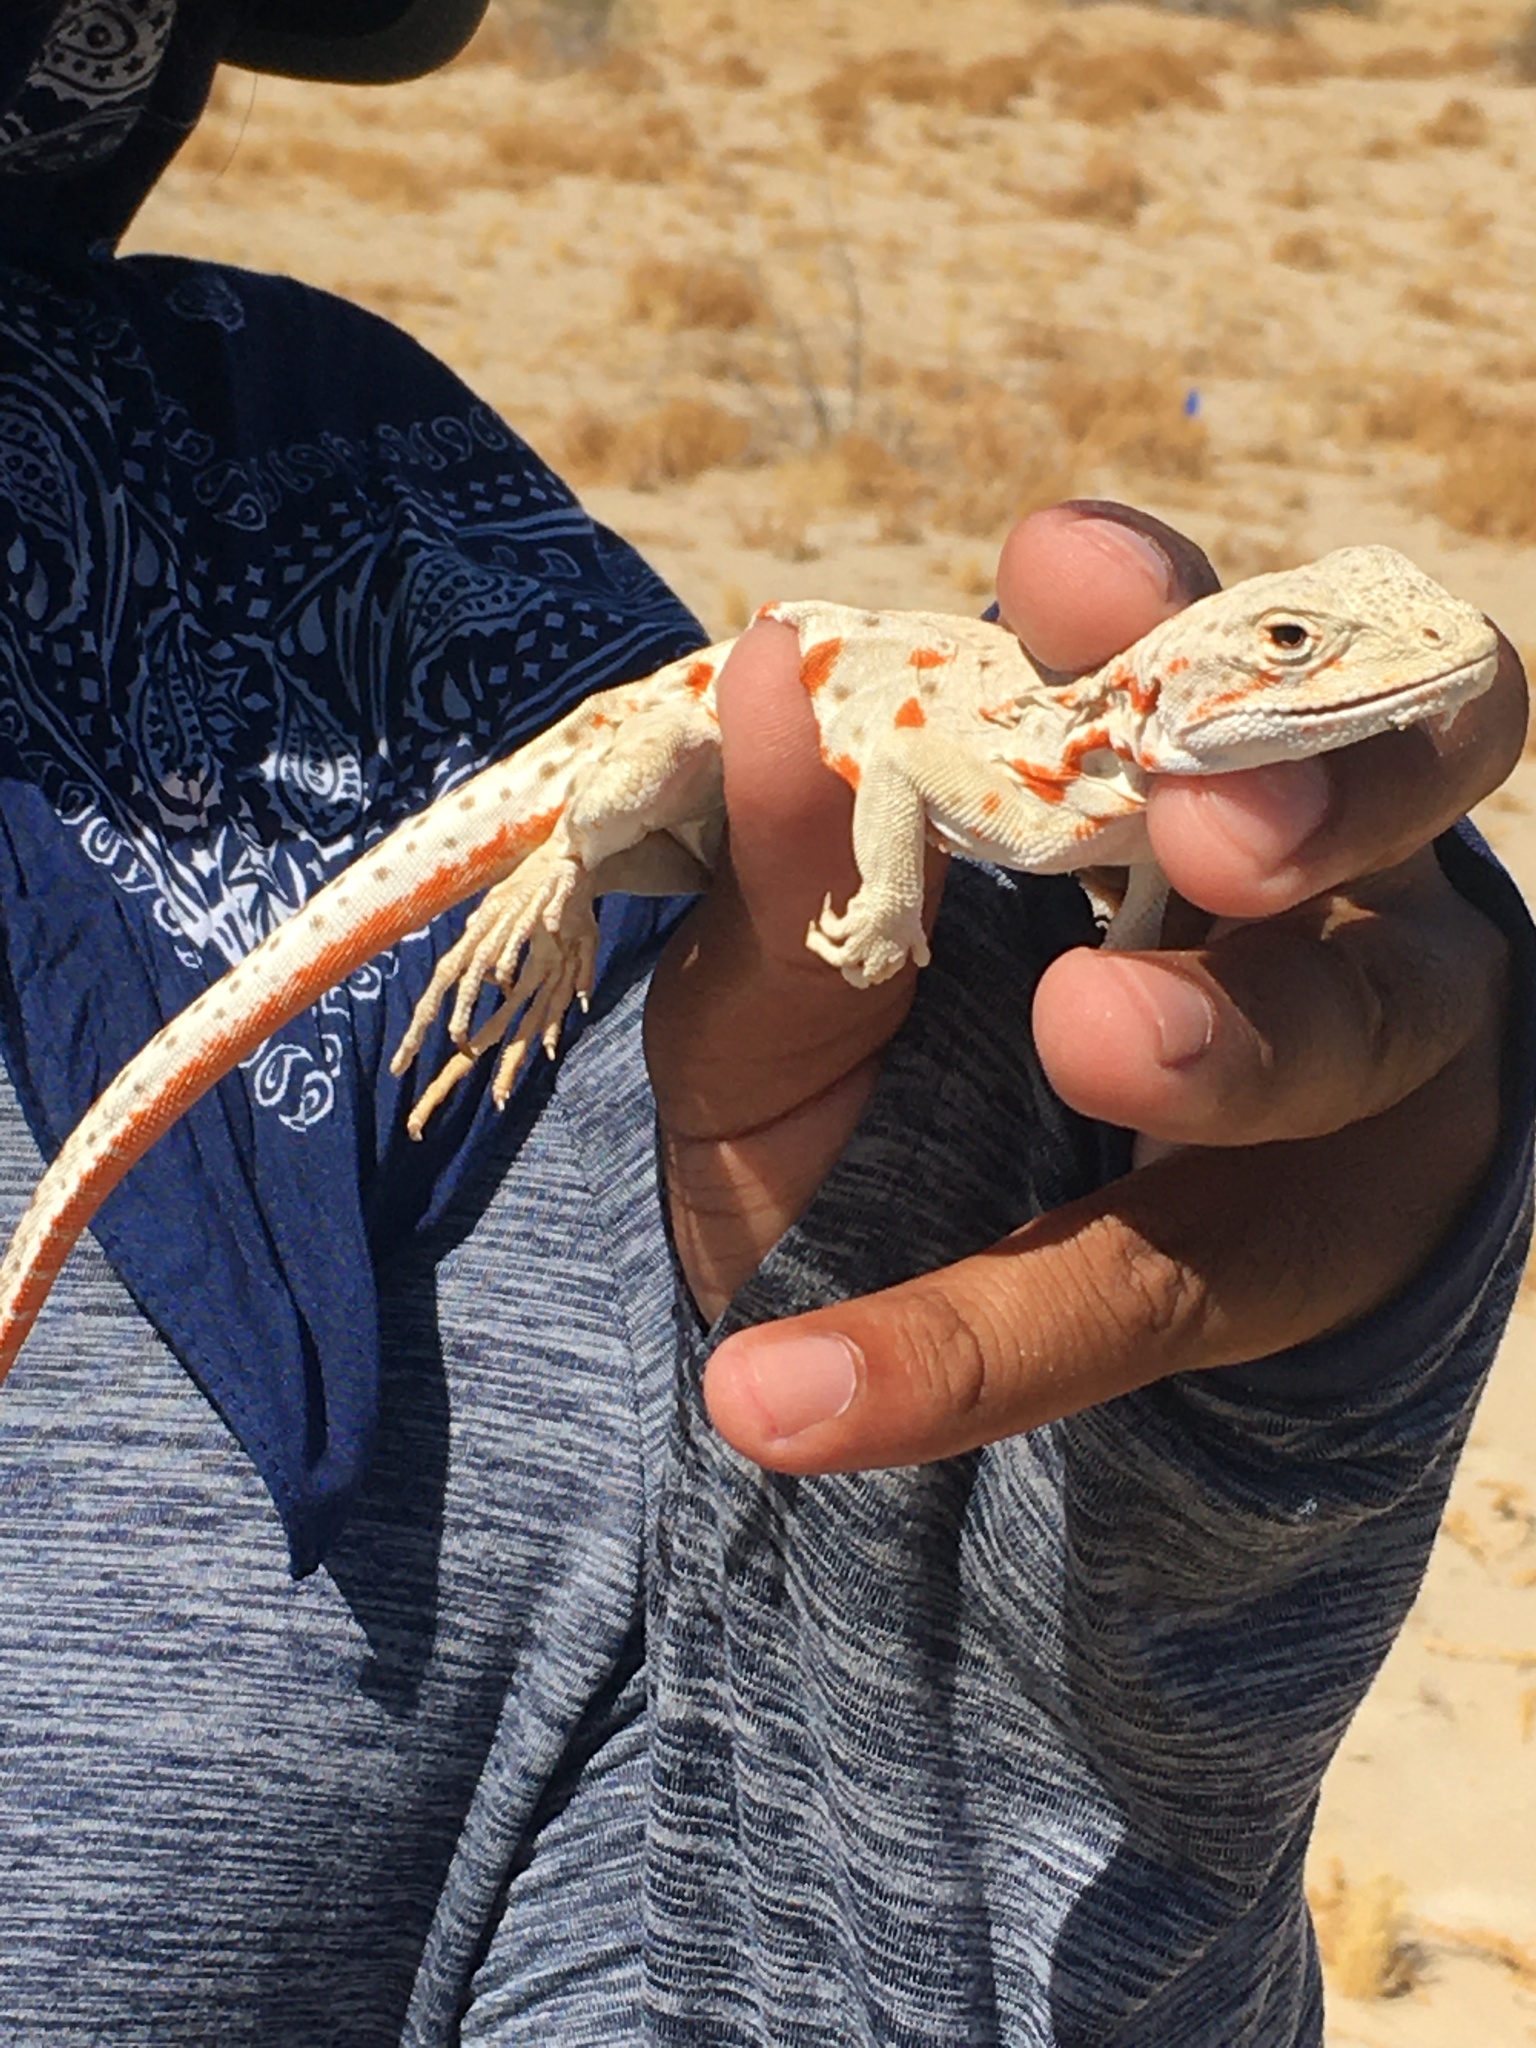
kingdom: Animalia
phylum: Chordata
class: Squamata
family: Crotaphytidae
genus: Gambelia
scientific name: Gambelia wislizenii
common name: Longnose leopard lizard
